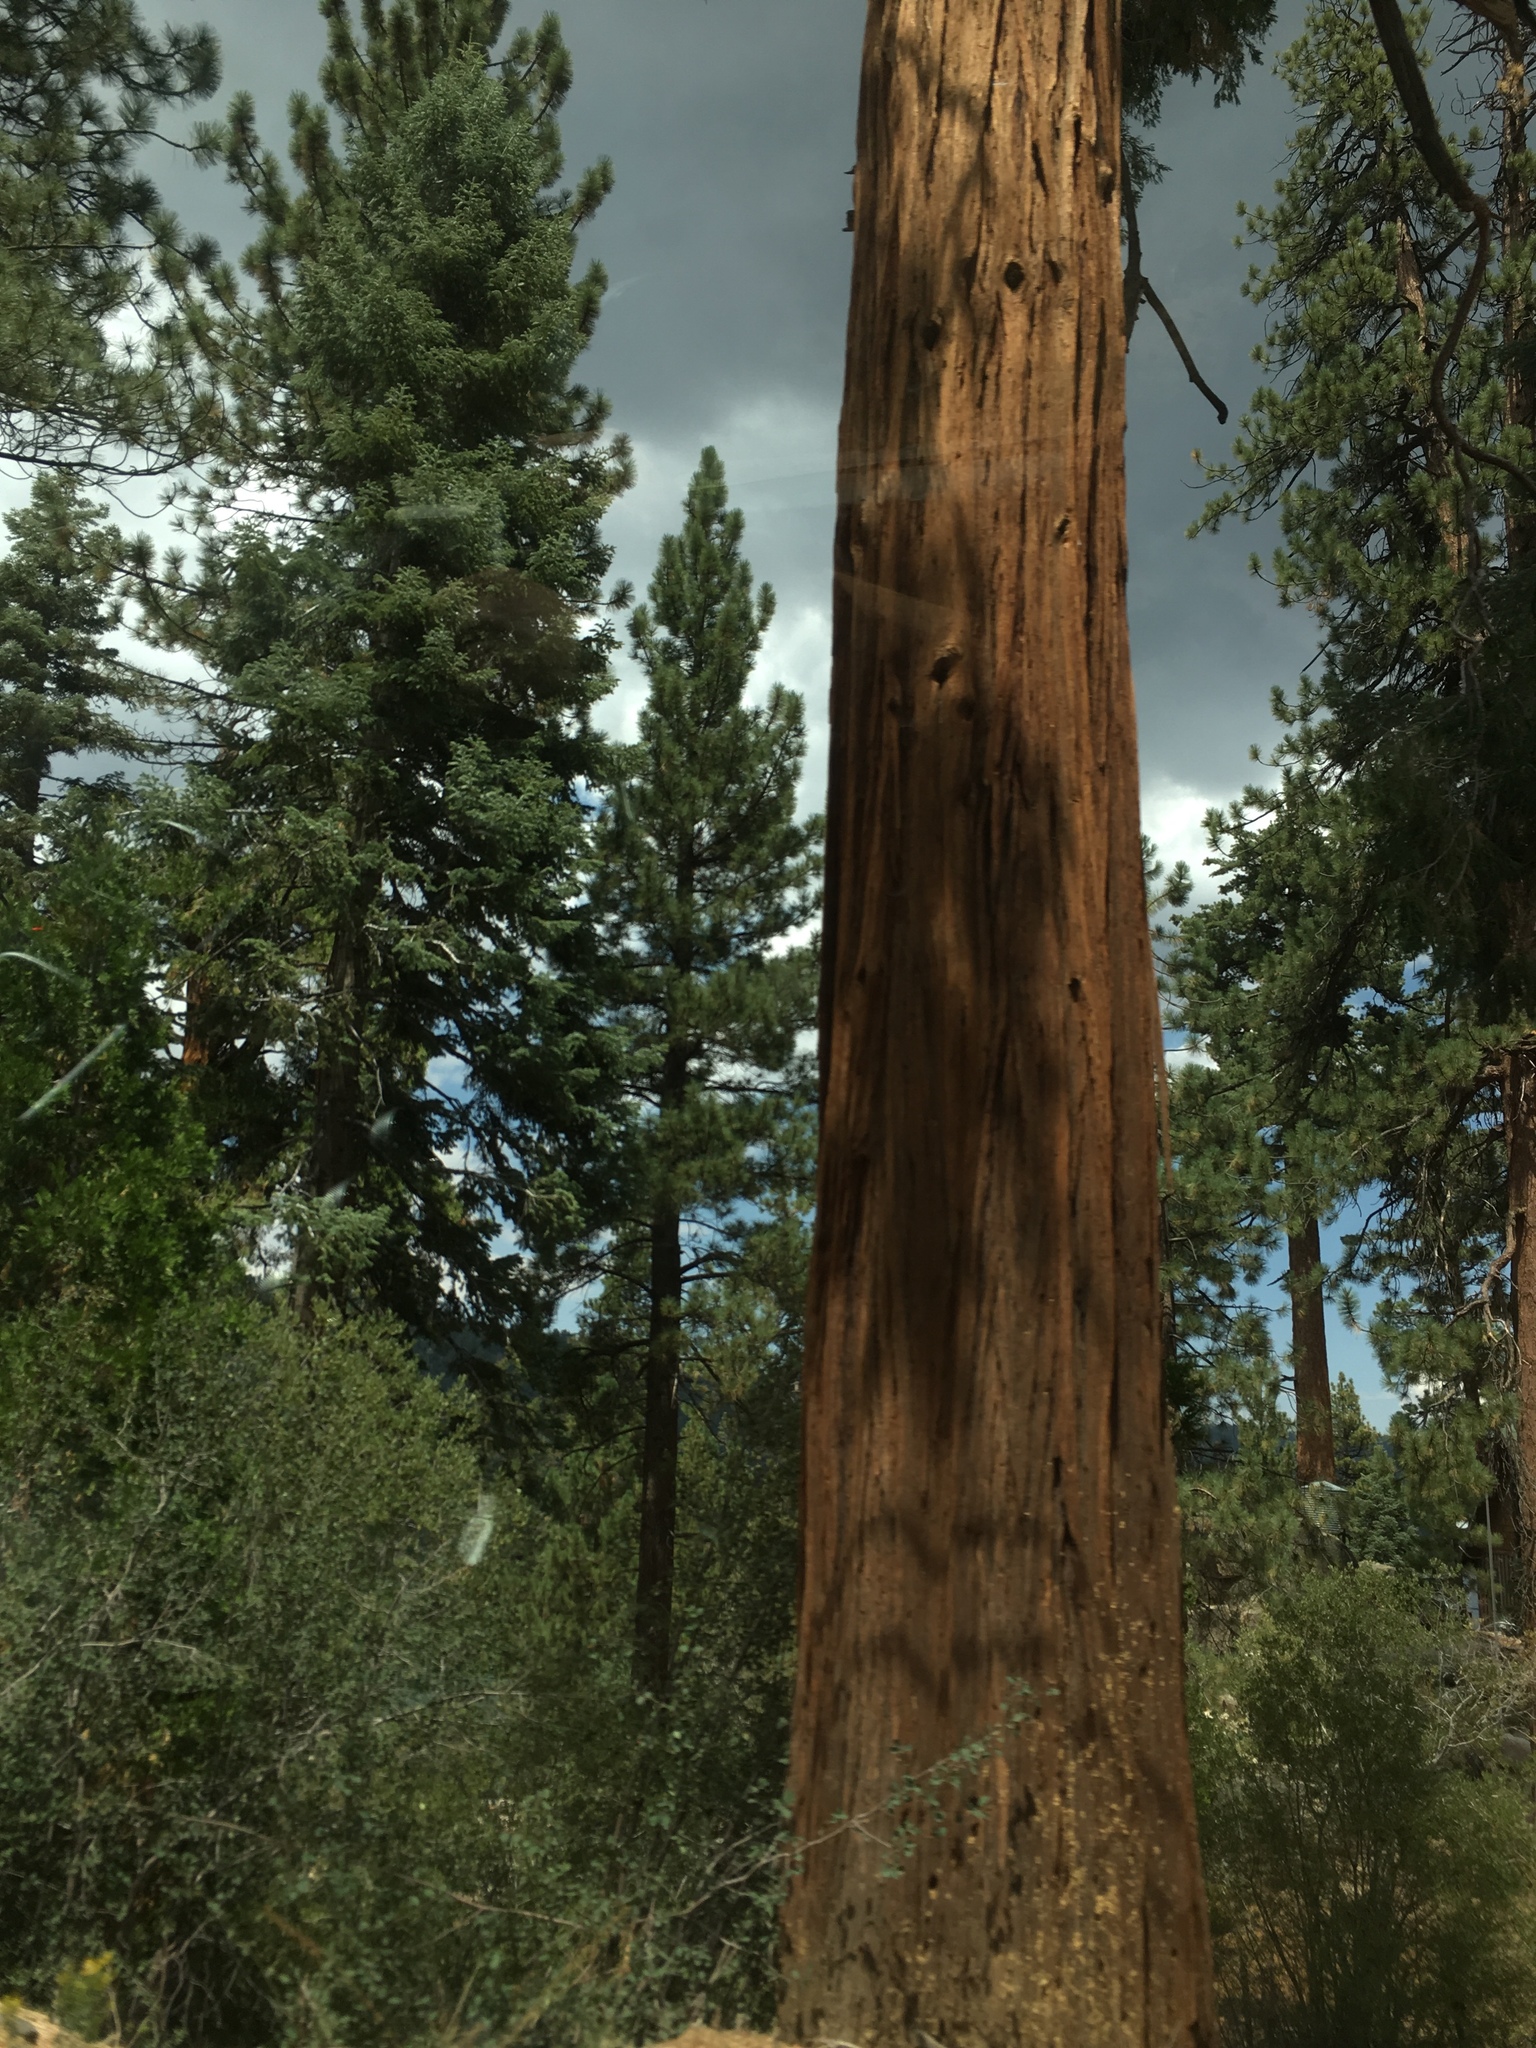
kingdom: Plantae
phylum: Tracheophyta
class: Pinopsida
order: Pinales
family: Cupressaceae
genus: Calocedrus
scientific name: Calocedrus decurrens
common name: Californian incense-cedar
